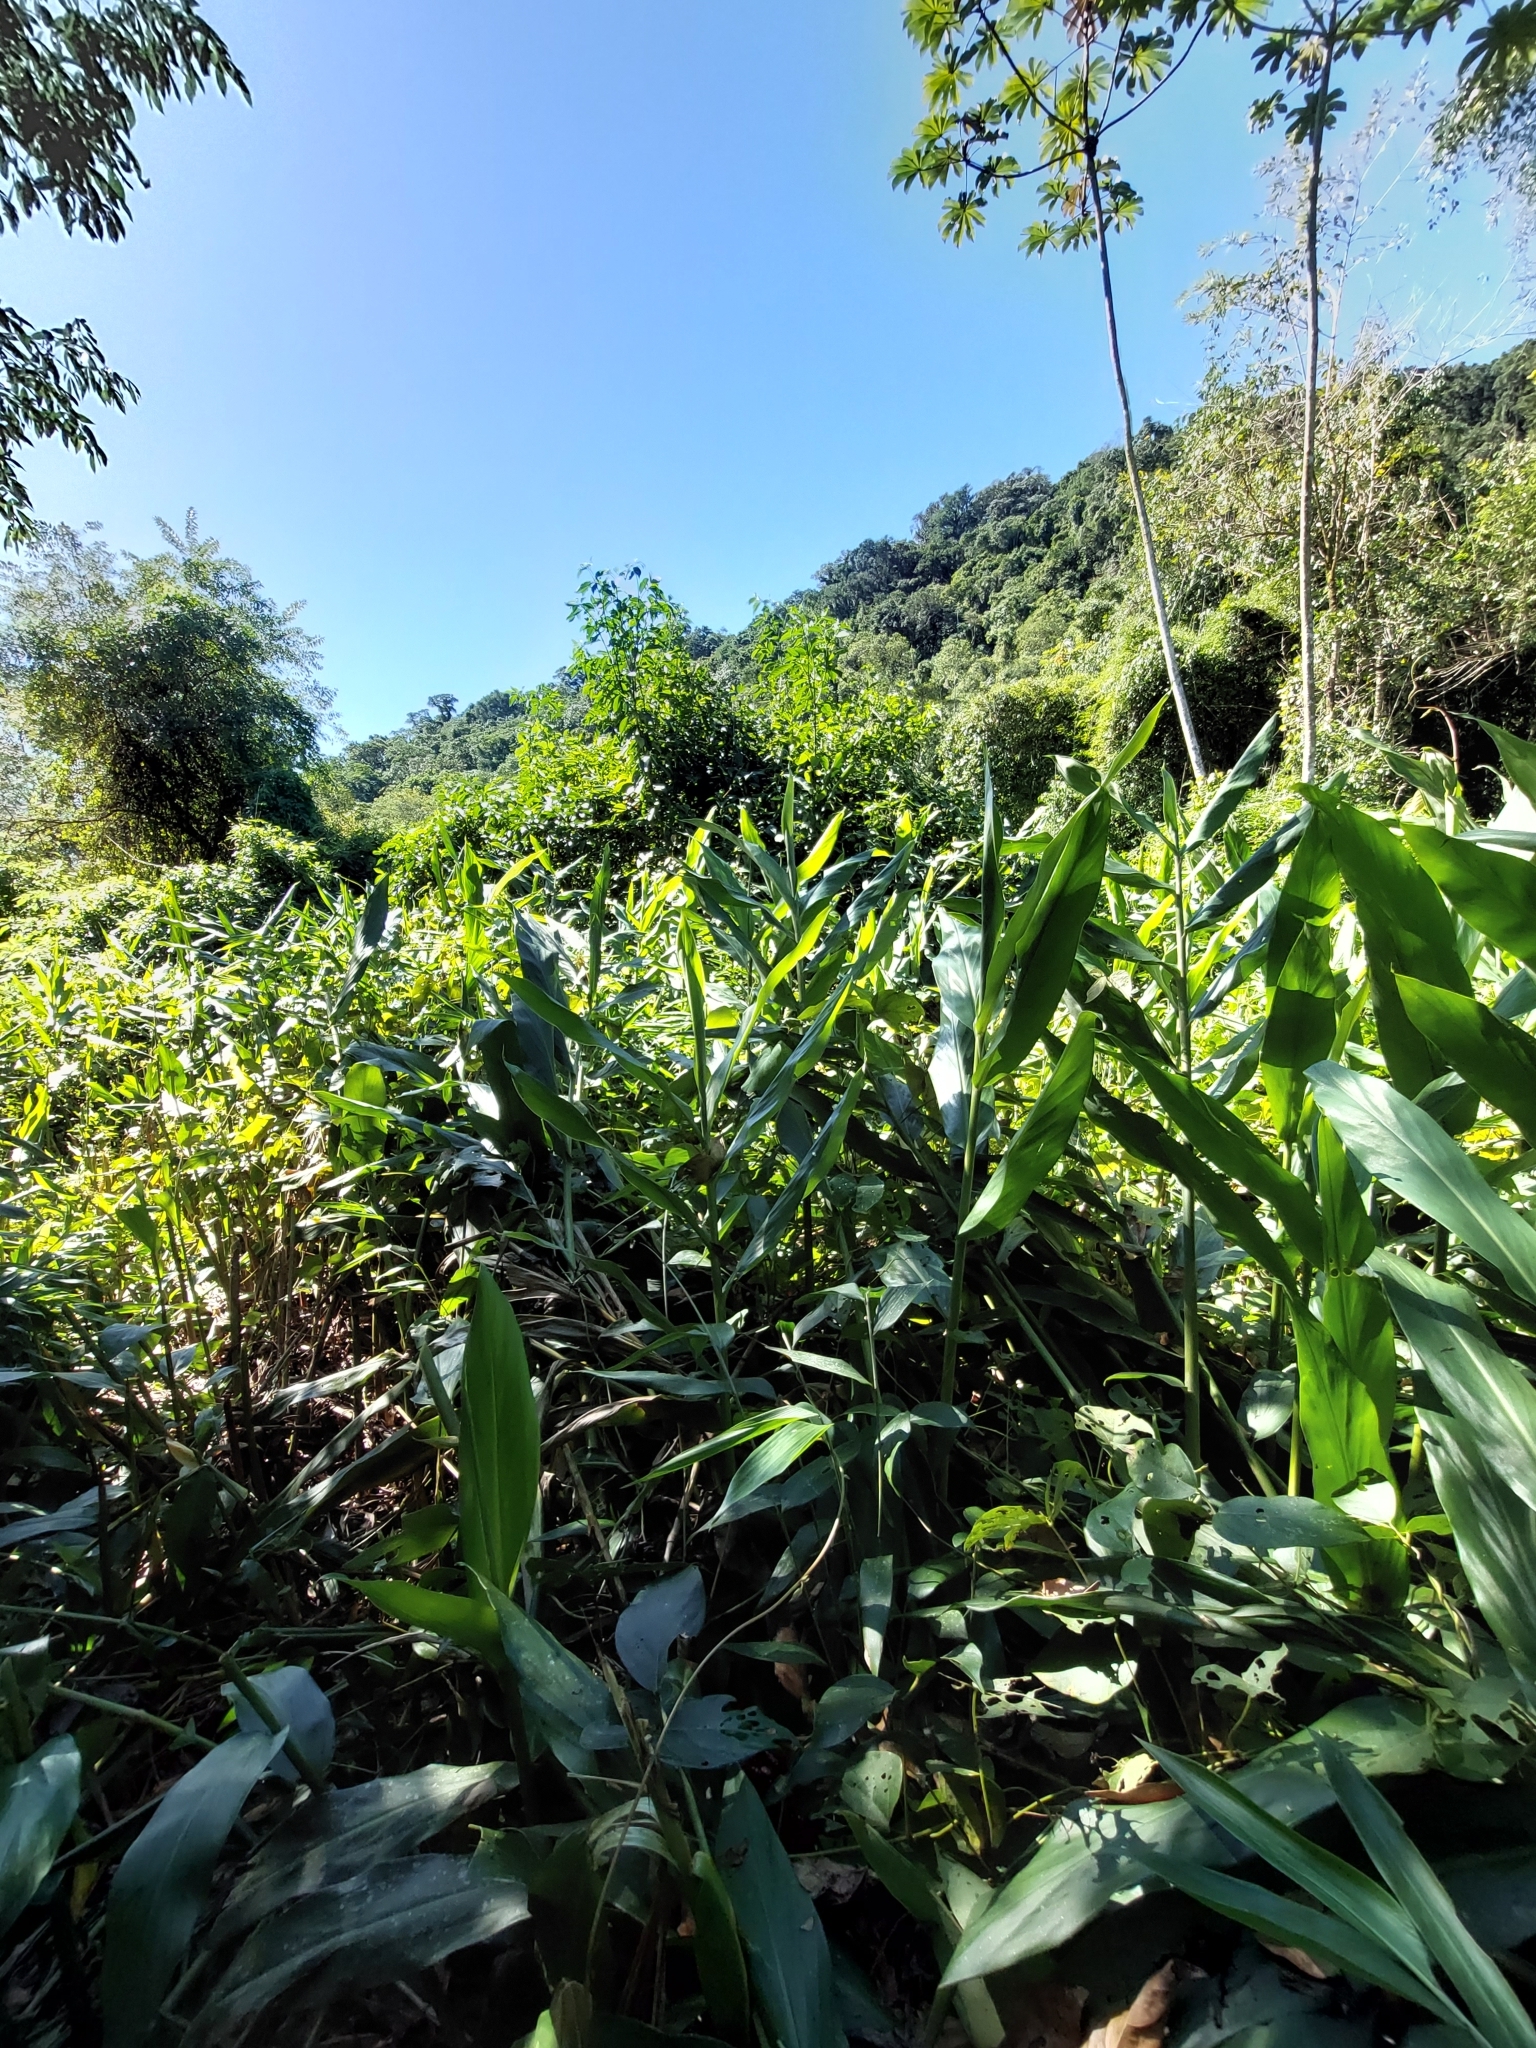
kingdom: Plantae
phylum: Tracheophyta
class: Liliopsida
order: Zingiberales
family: Zingiberaceae
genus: Hedychium
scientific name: Hedychium coronarium
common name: White garland-lily
